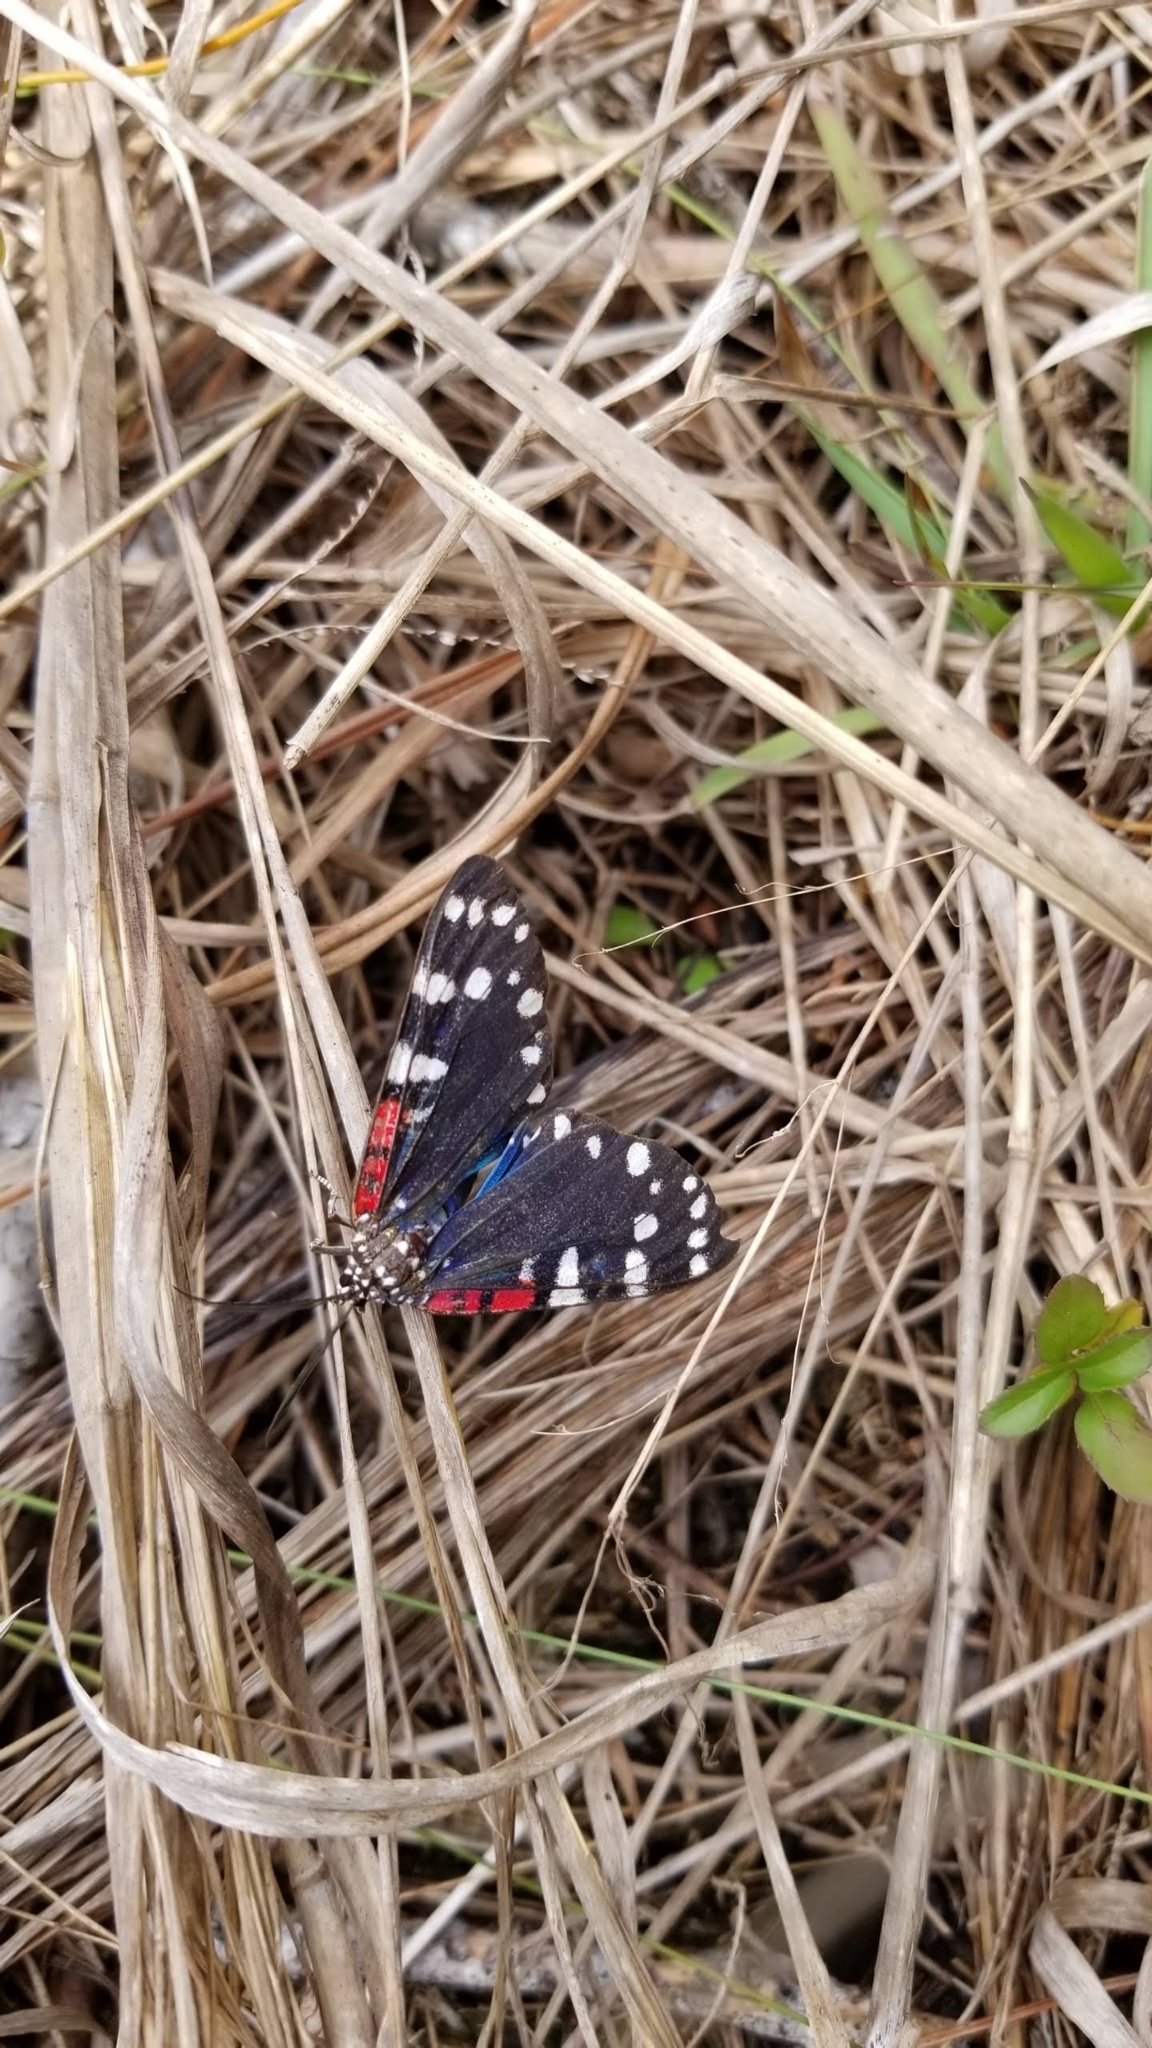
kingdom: Animalia
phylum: Arthropoda
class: Insecta
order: Lepidoptera
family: Erebidae
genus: Composia
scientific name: Composia fidelissima
